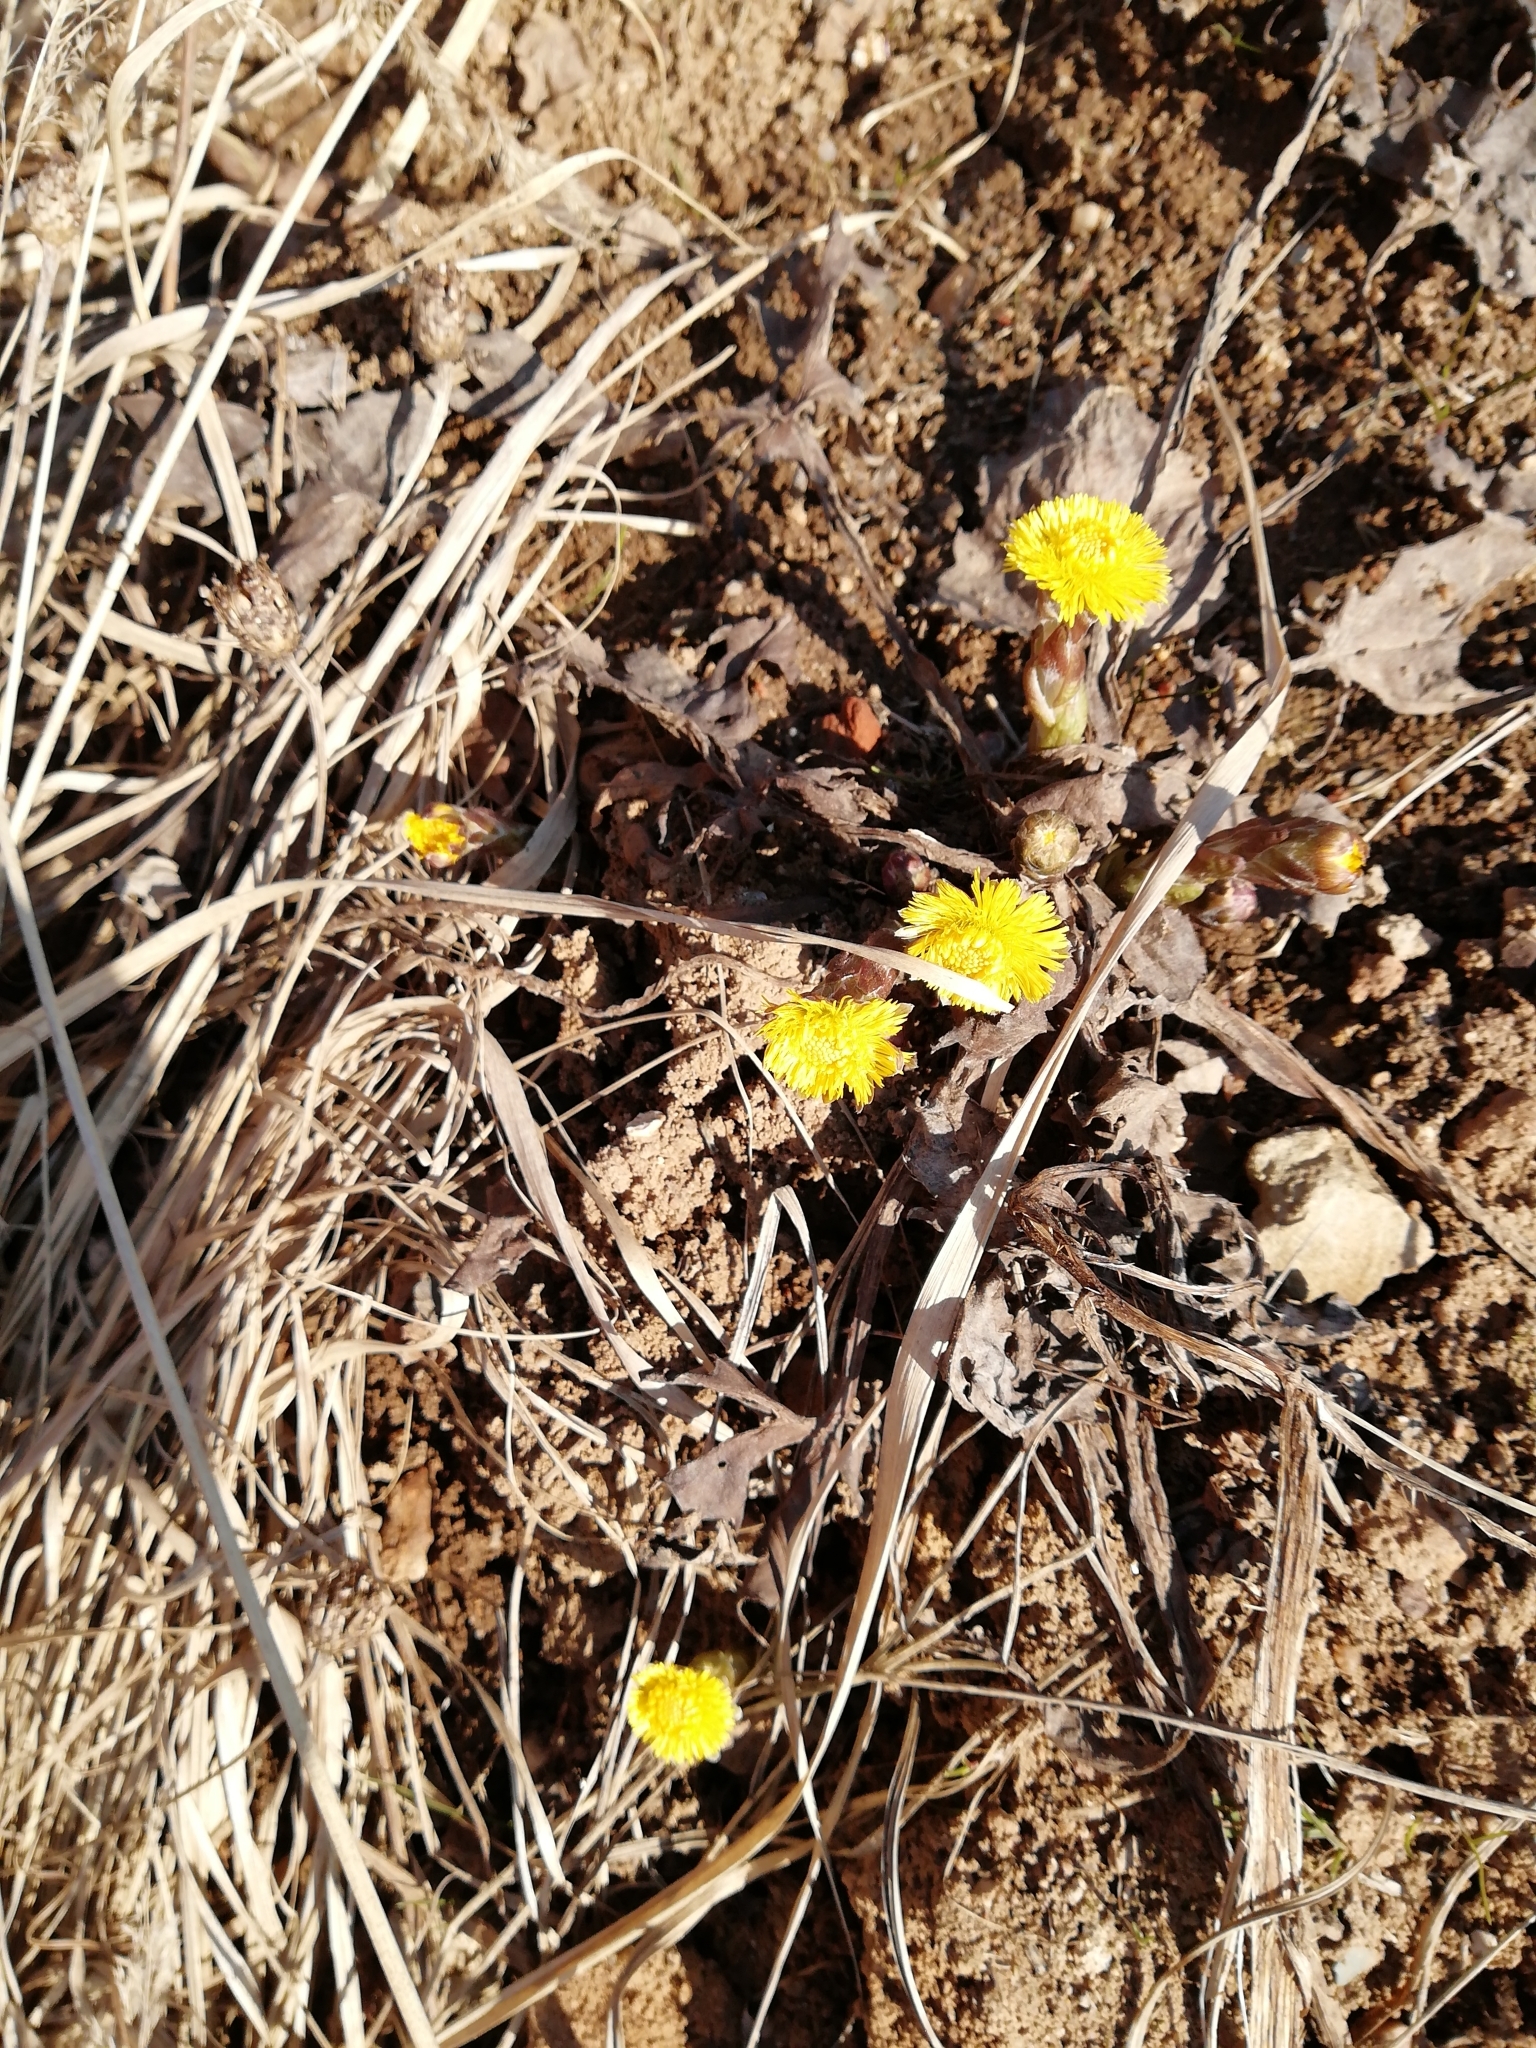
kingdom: Plantae
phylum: Tracheophyta
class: Magnoliopsida
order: Asterales
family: Asteraceae
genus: Tussilago
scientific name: Tussilago farfara
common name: Coltsfoot
